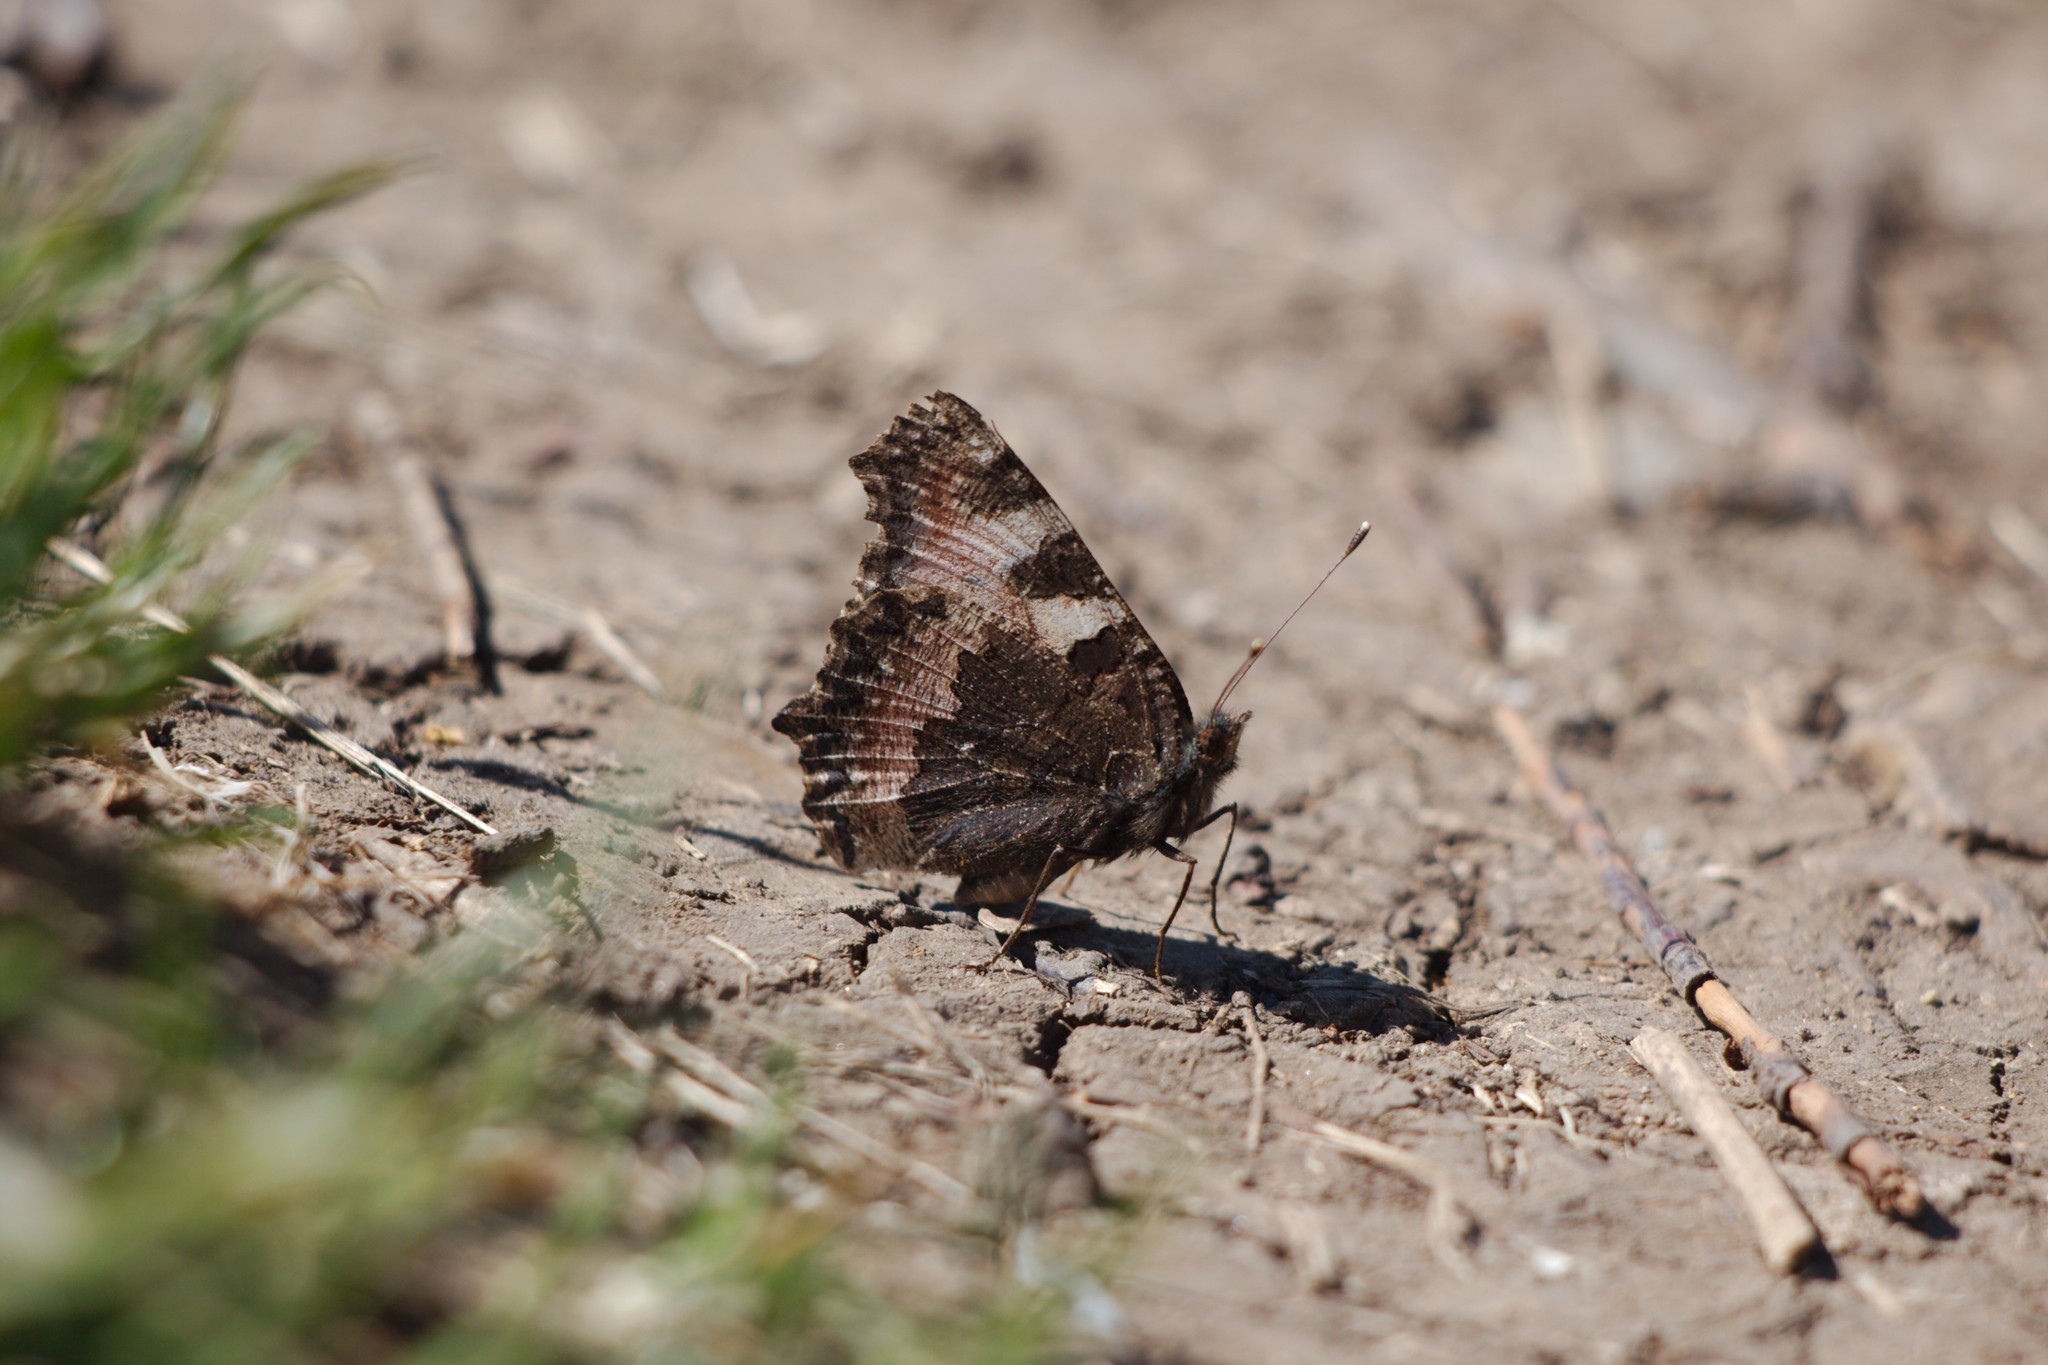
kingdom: Animalia
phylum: Arthropoda
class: Insecta
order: Lepidoptera
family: Nymphalidae
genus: Aglais
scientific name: Aglais urticae
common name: Small tortoiseshell
